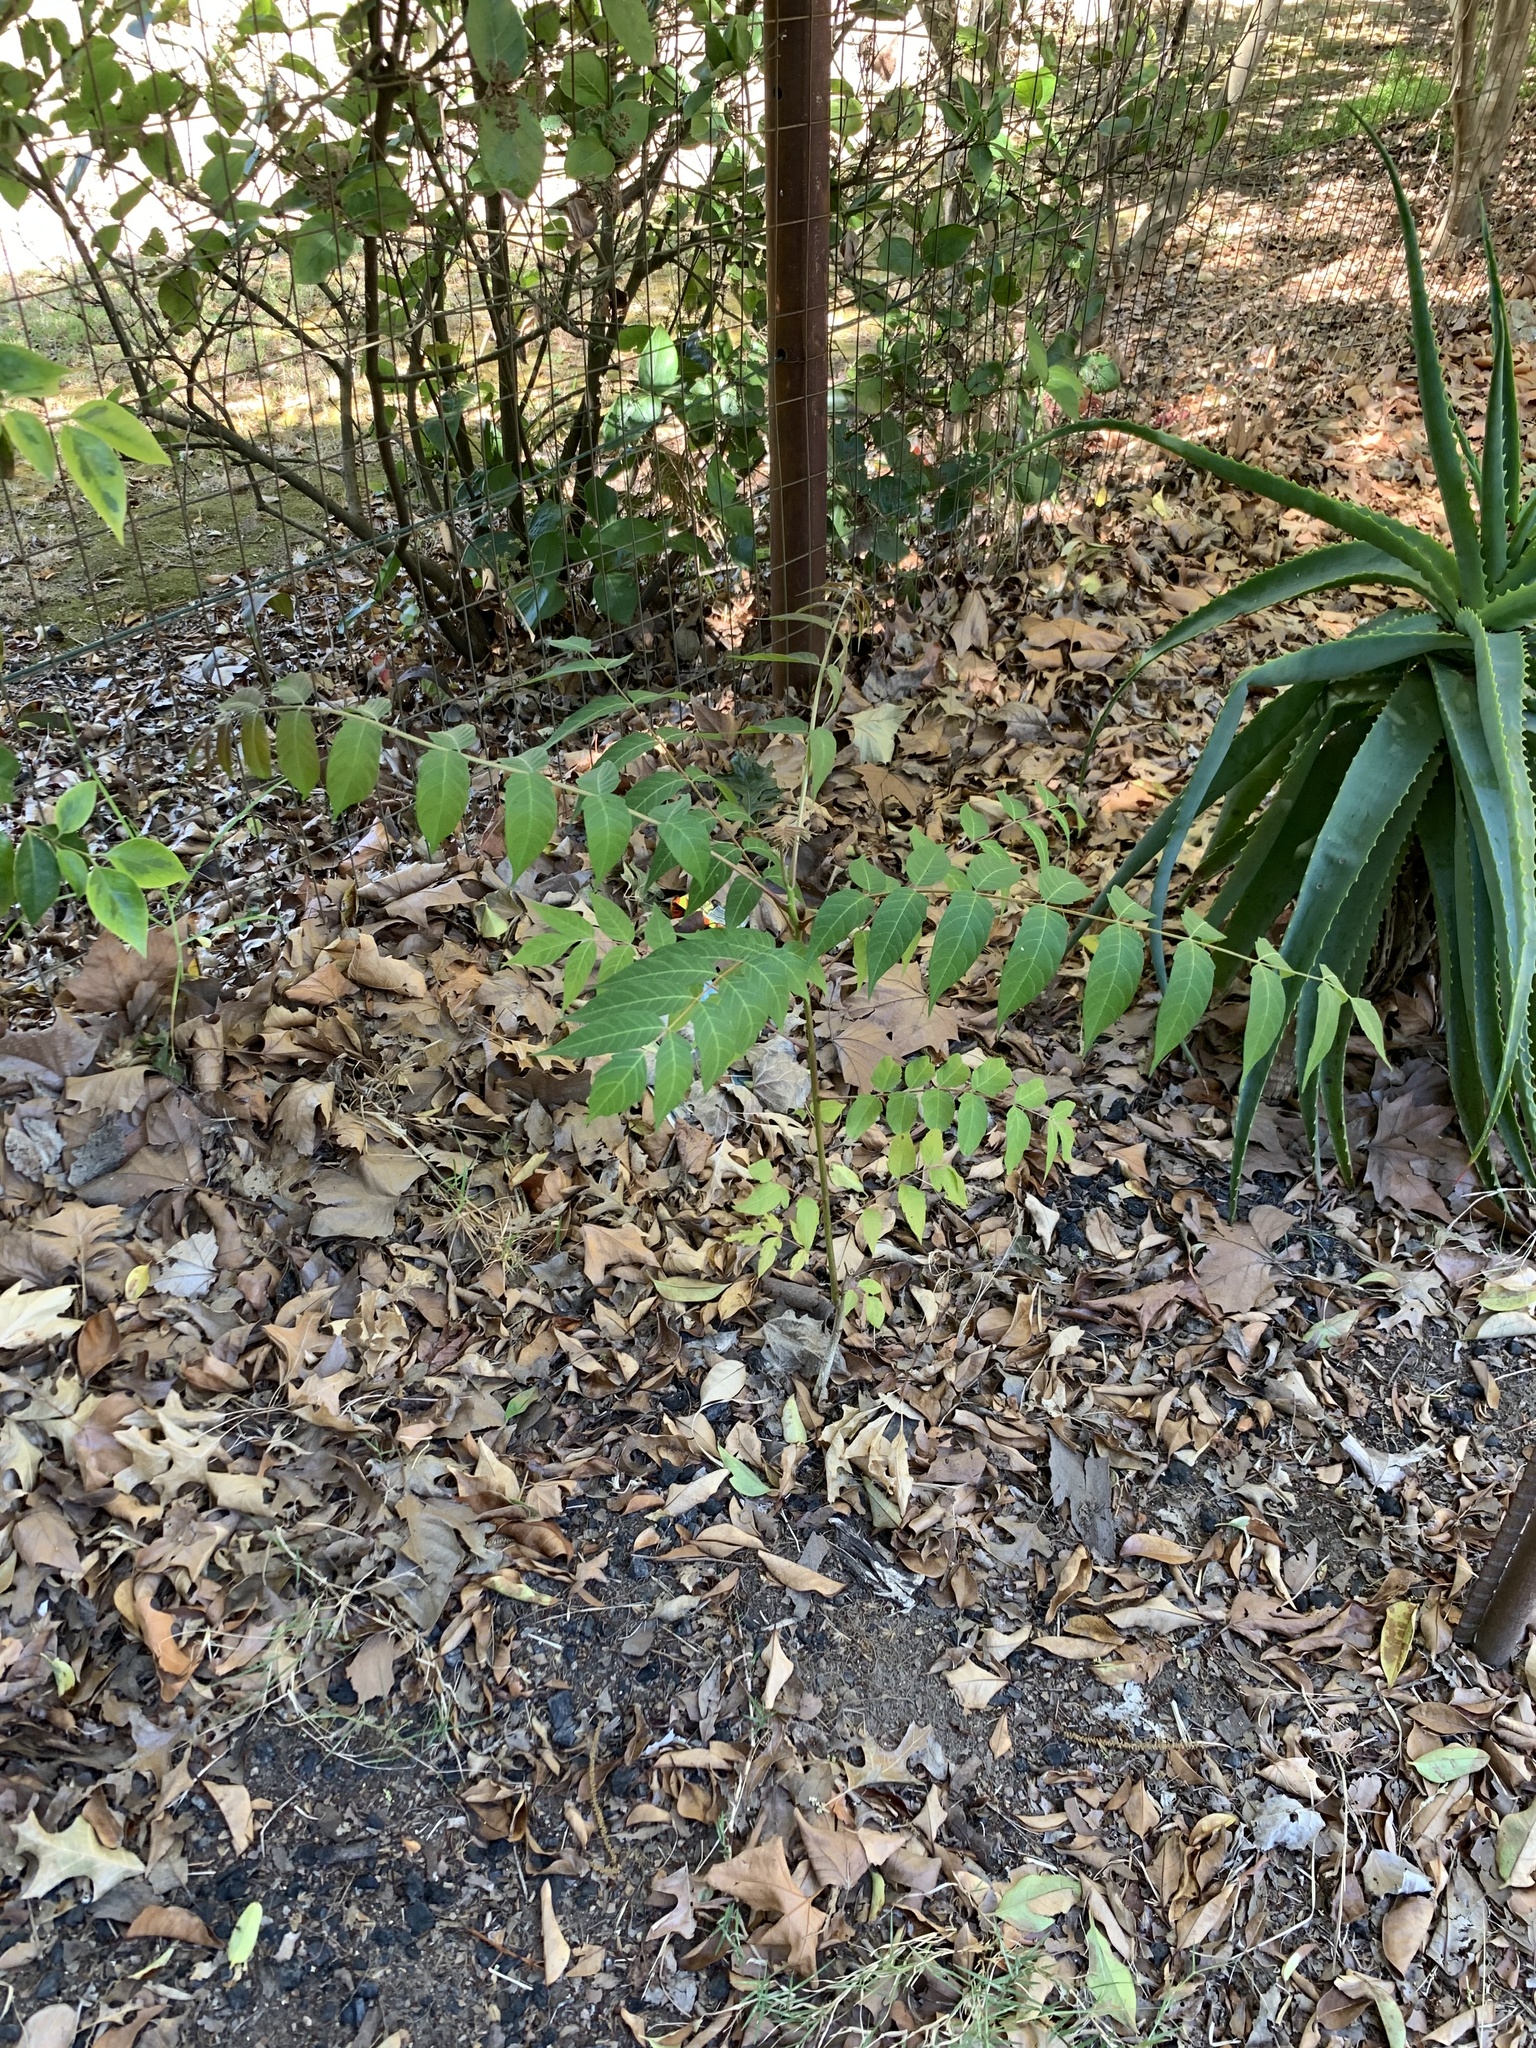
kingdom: Plantae
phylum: Tracheophyta
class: Magnoliopsida
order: Sapindales
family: Simaroubaceae
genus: Ailanthus
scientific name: Ailanthus altissima
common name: Tree-of-heaven
